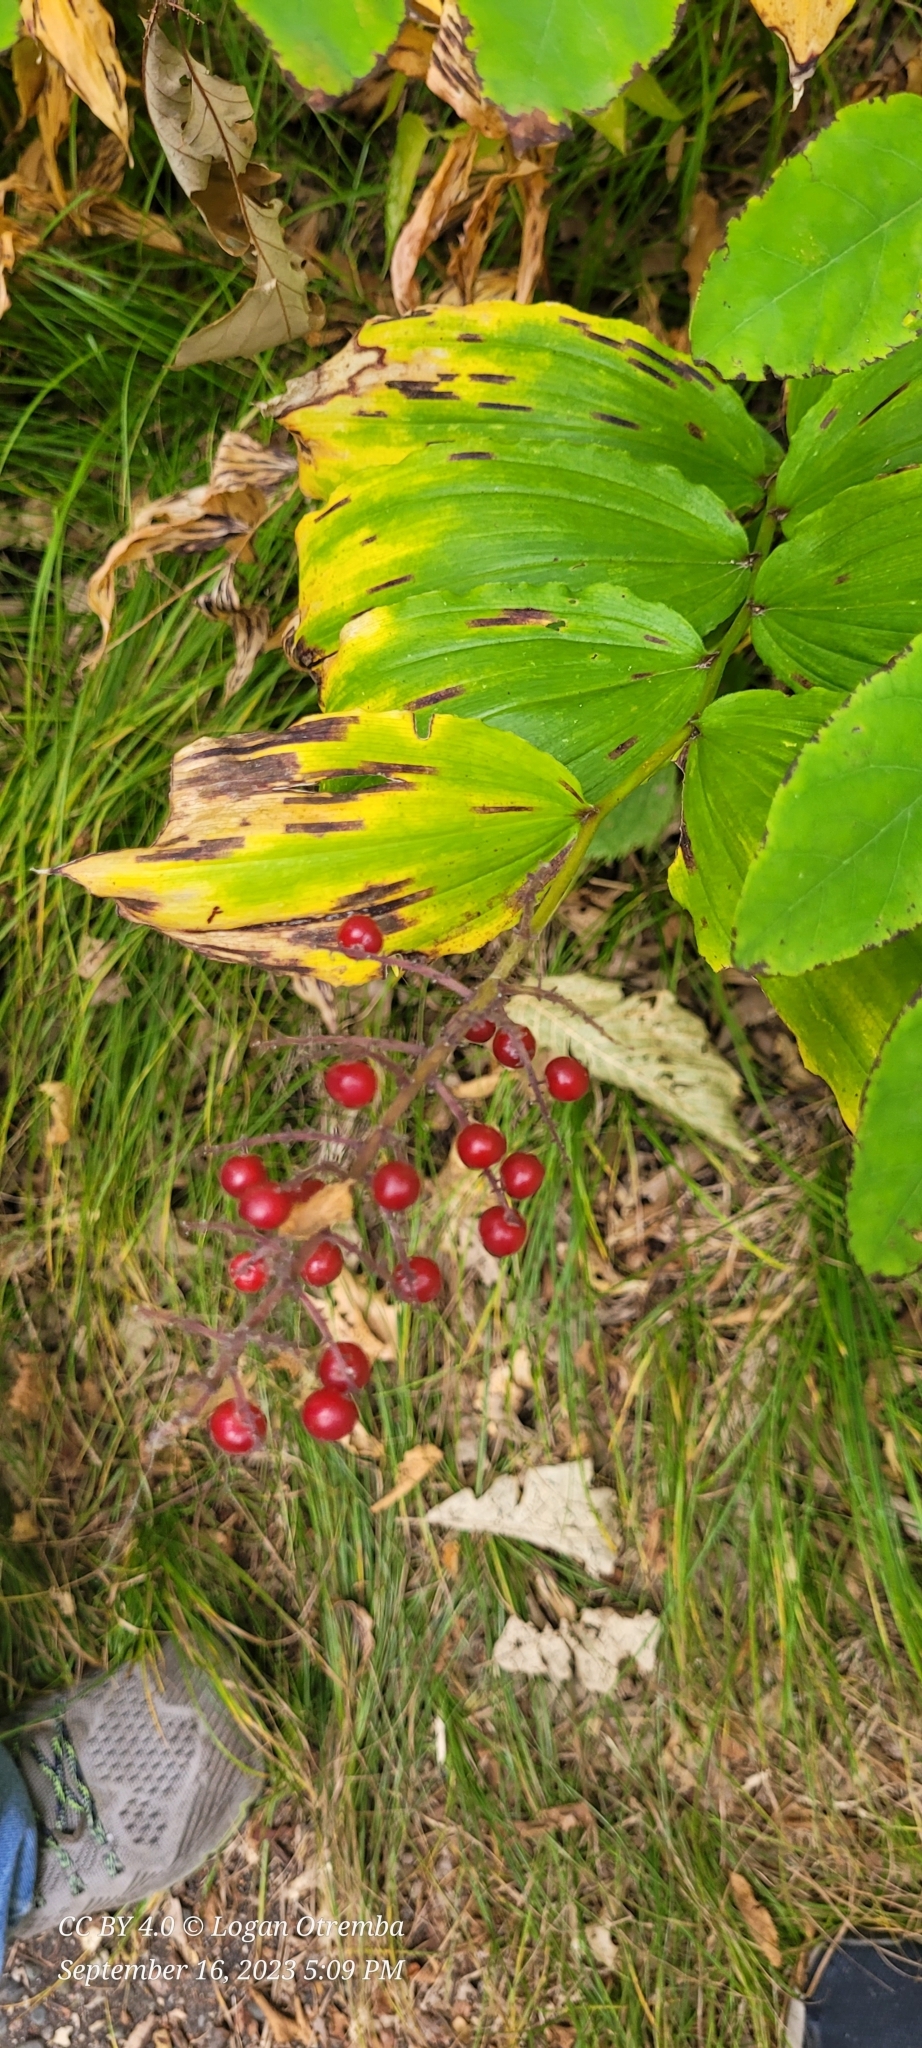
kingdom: Plantae
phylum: Tracheophyta
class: Liliopsida
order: Asparagales
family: Asparagaceae
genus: Maianthemum
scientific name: Maianthemum racemosum
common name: False spikenard
